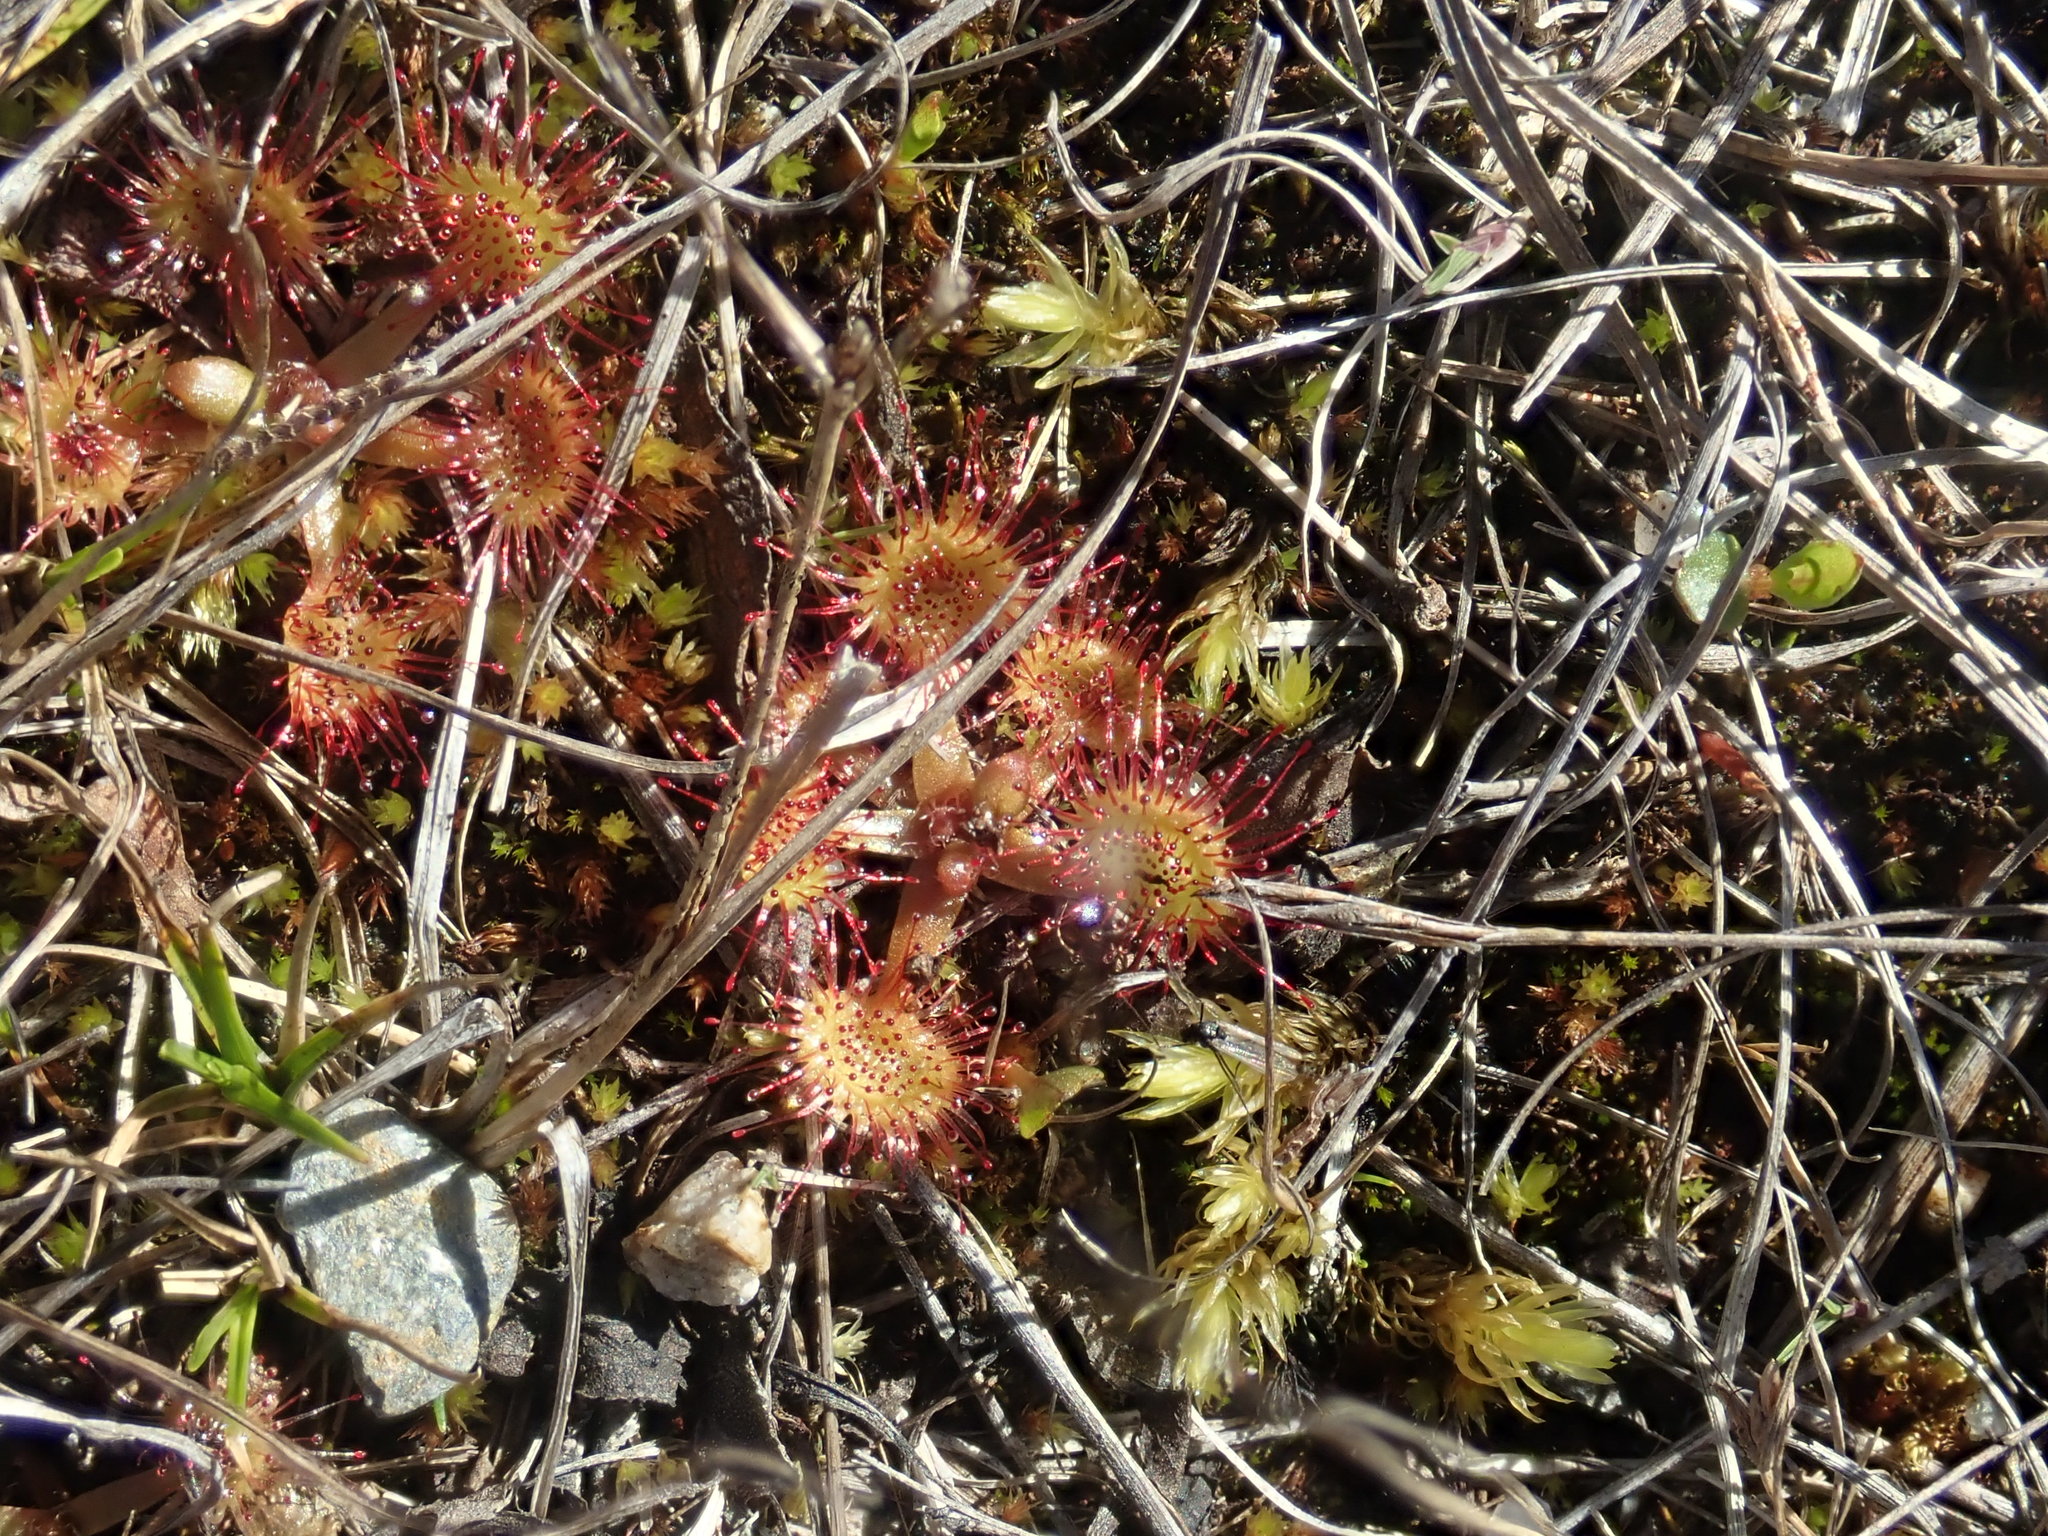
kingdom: Plantae
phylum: Tracheophyta
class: Magnoliopsida
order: Caryophyllales
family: Droseraceae
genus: Drosera
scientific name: Drosera rotundifolia
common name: Round-leaved sundew
